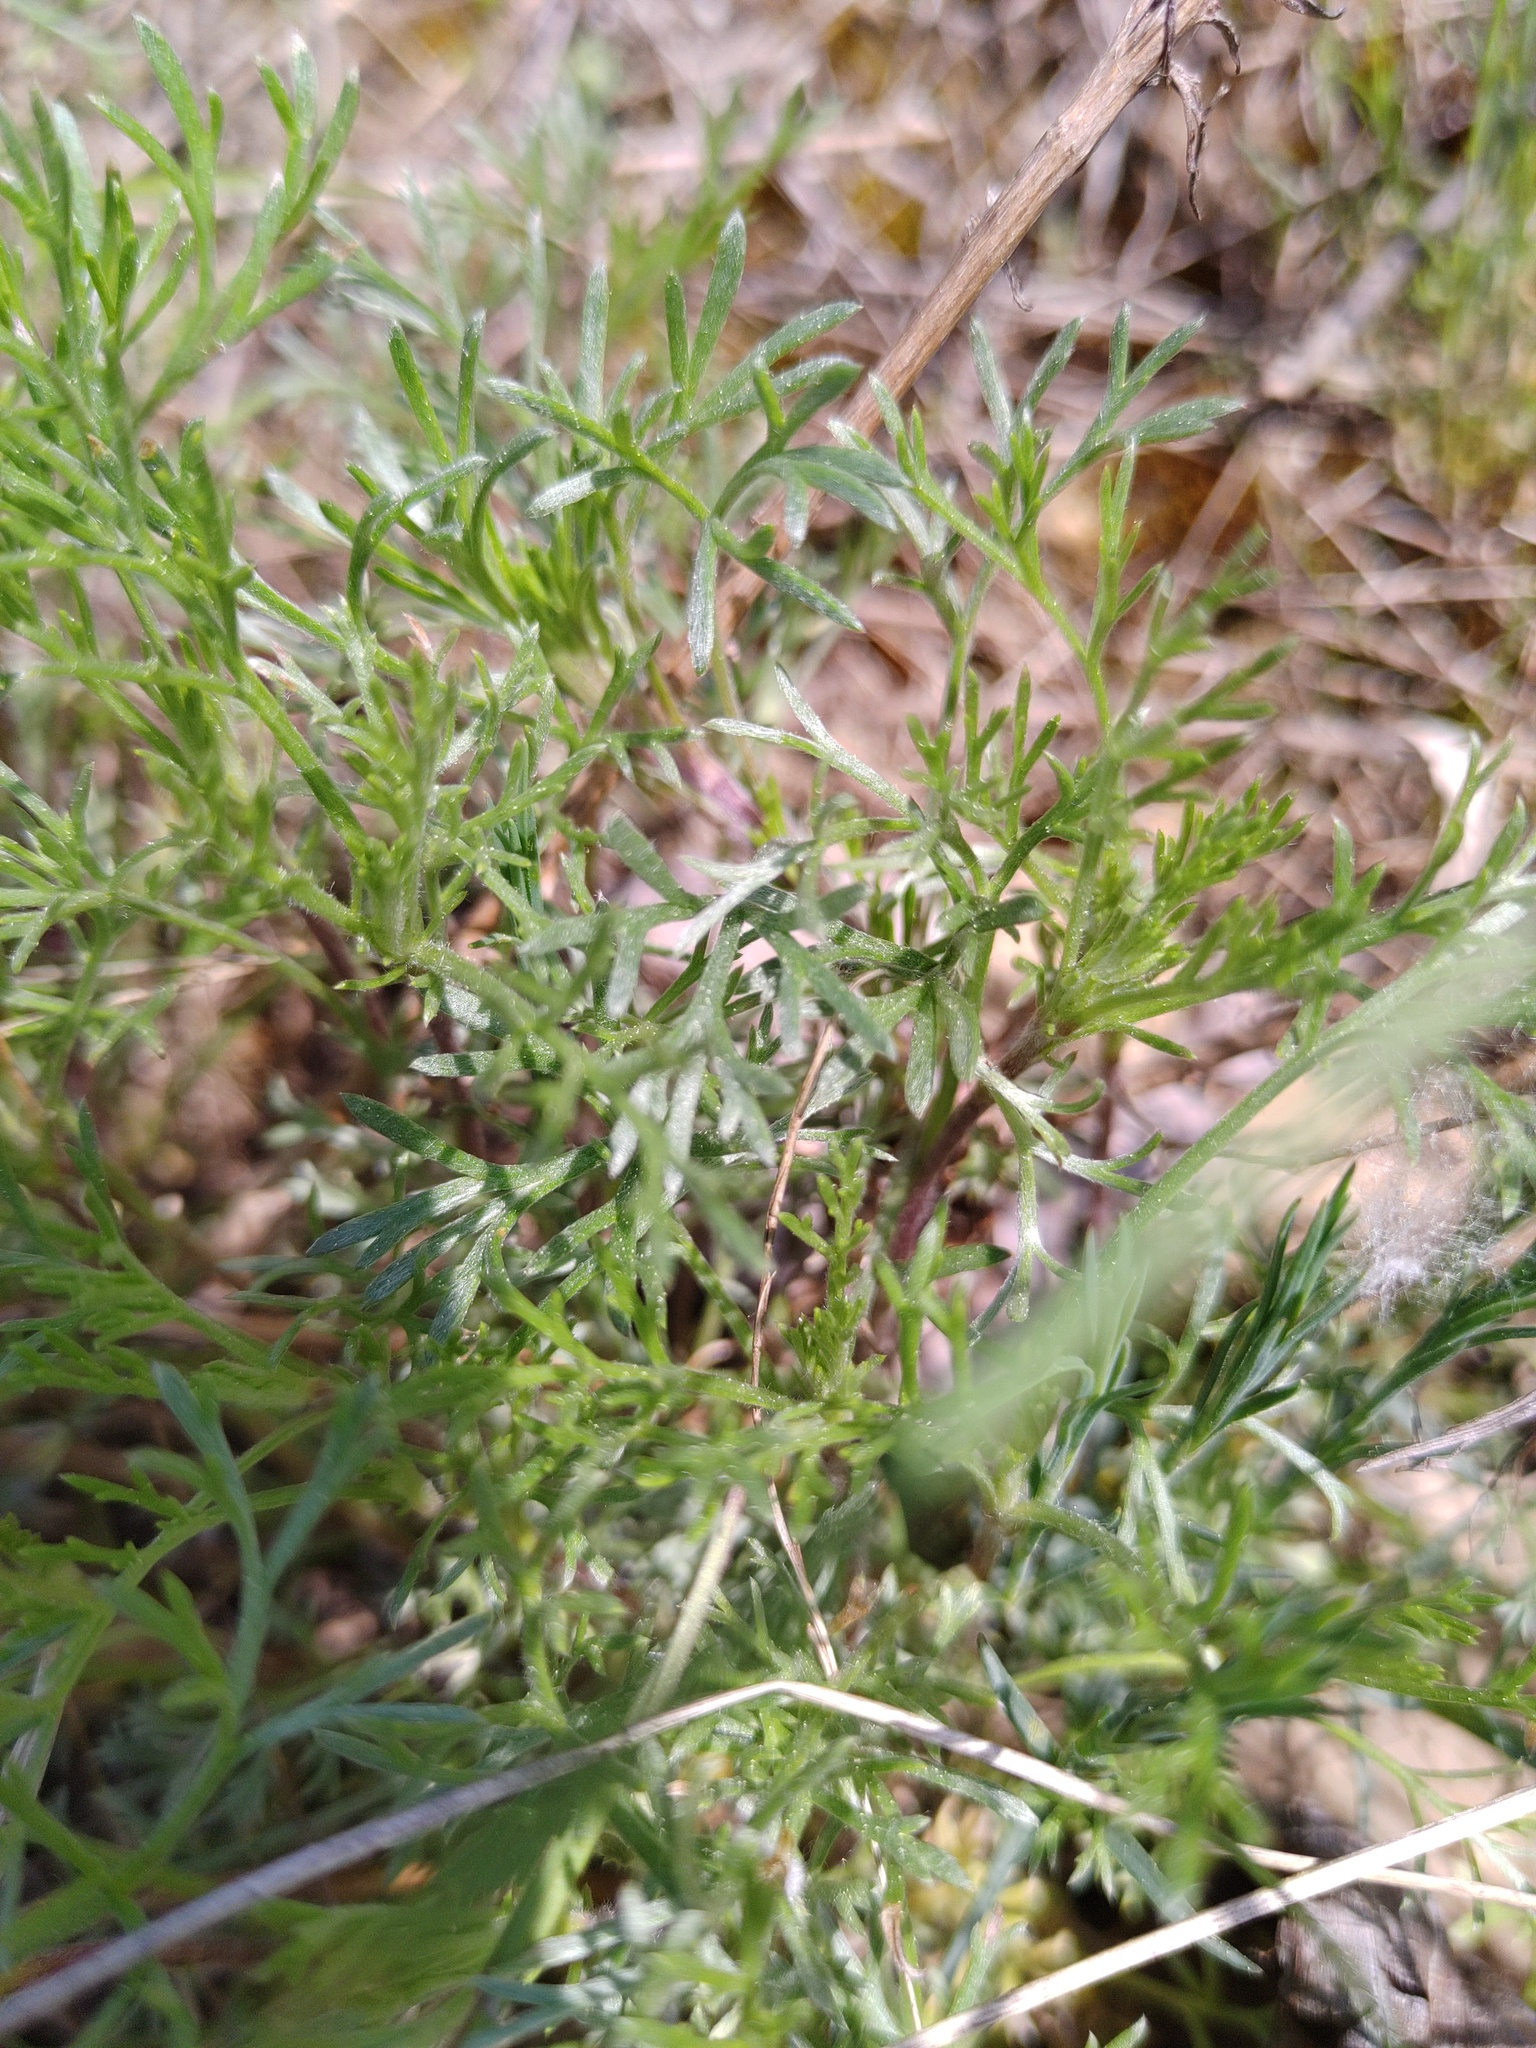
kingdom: Plantae
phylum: Tracheophyta
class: Magnoliopsida
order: Asterales
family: Asteraceae
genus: Artemisia
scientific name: Artemisia campestris
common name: Field wormwood
